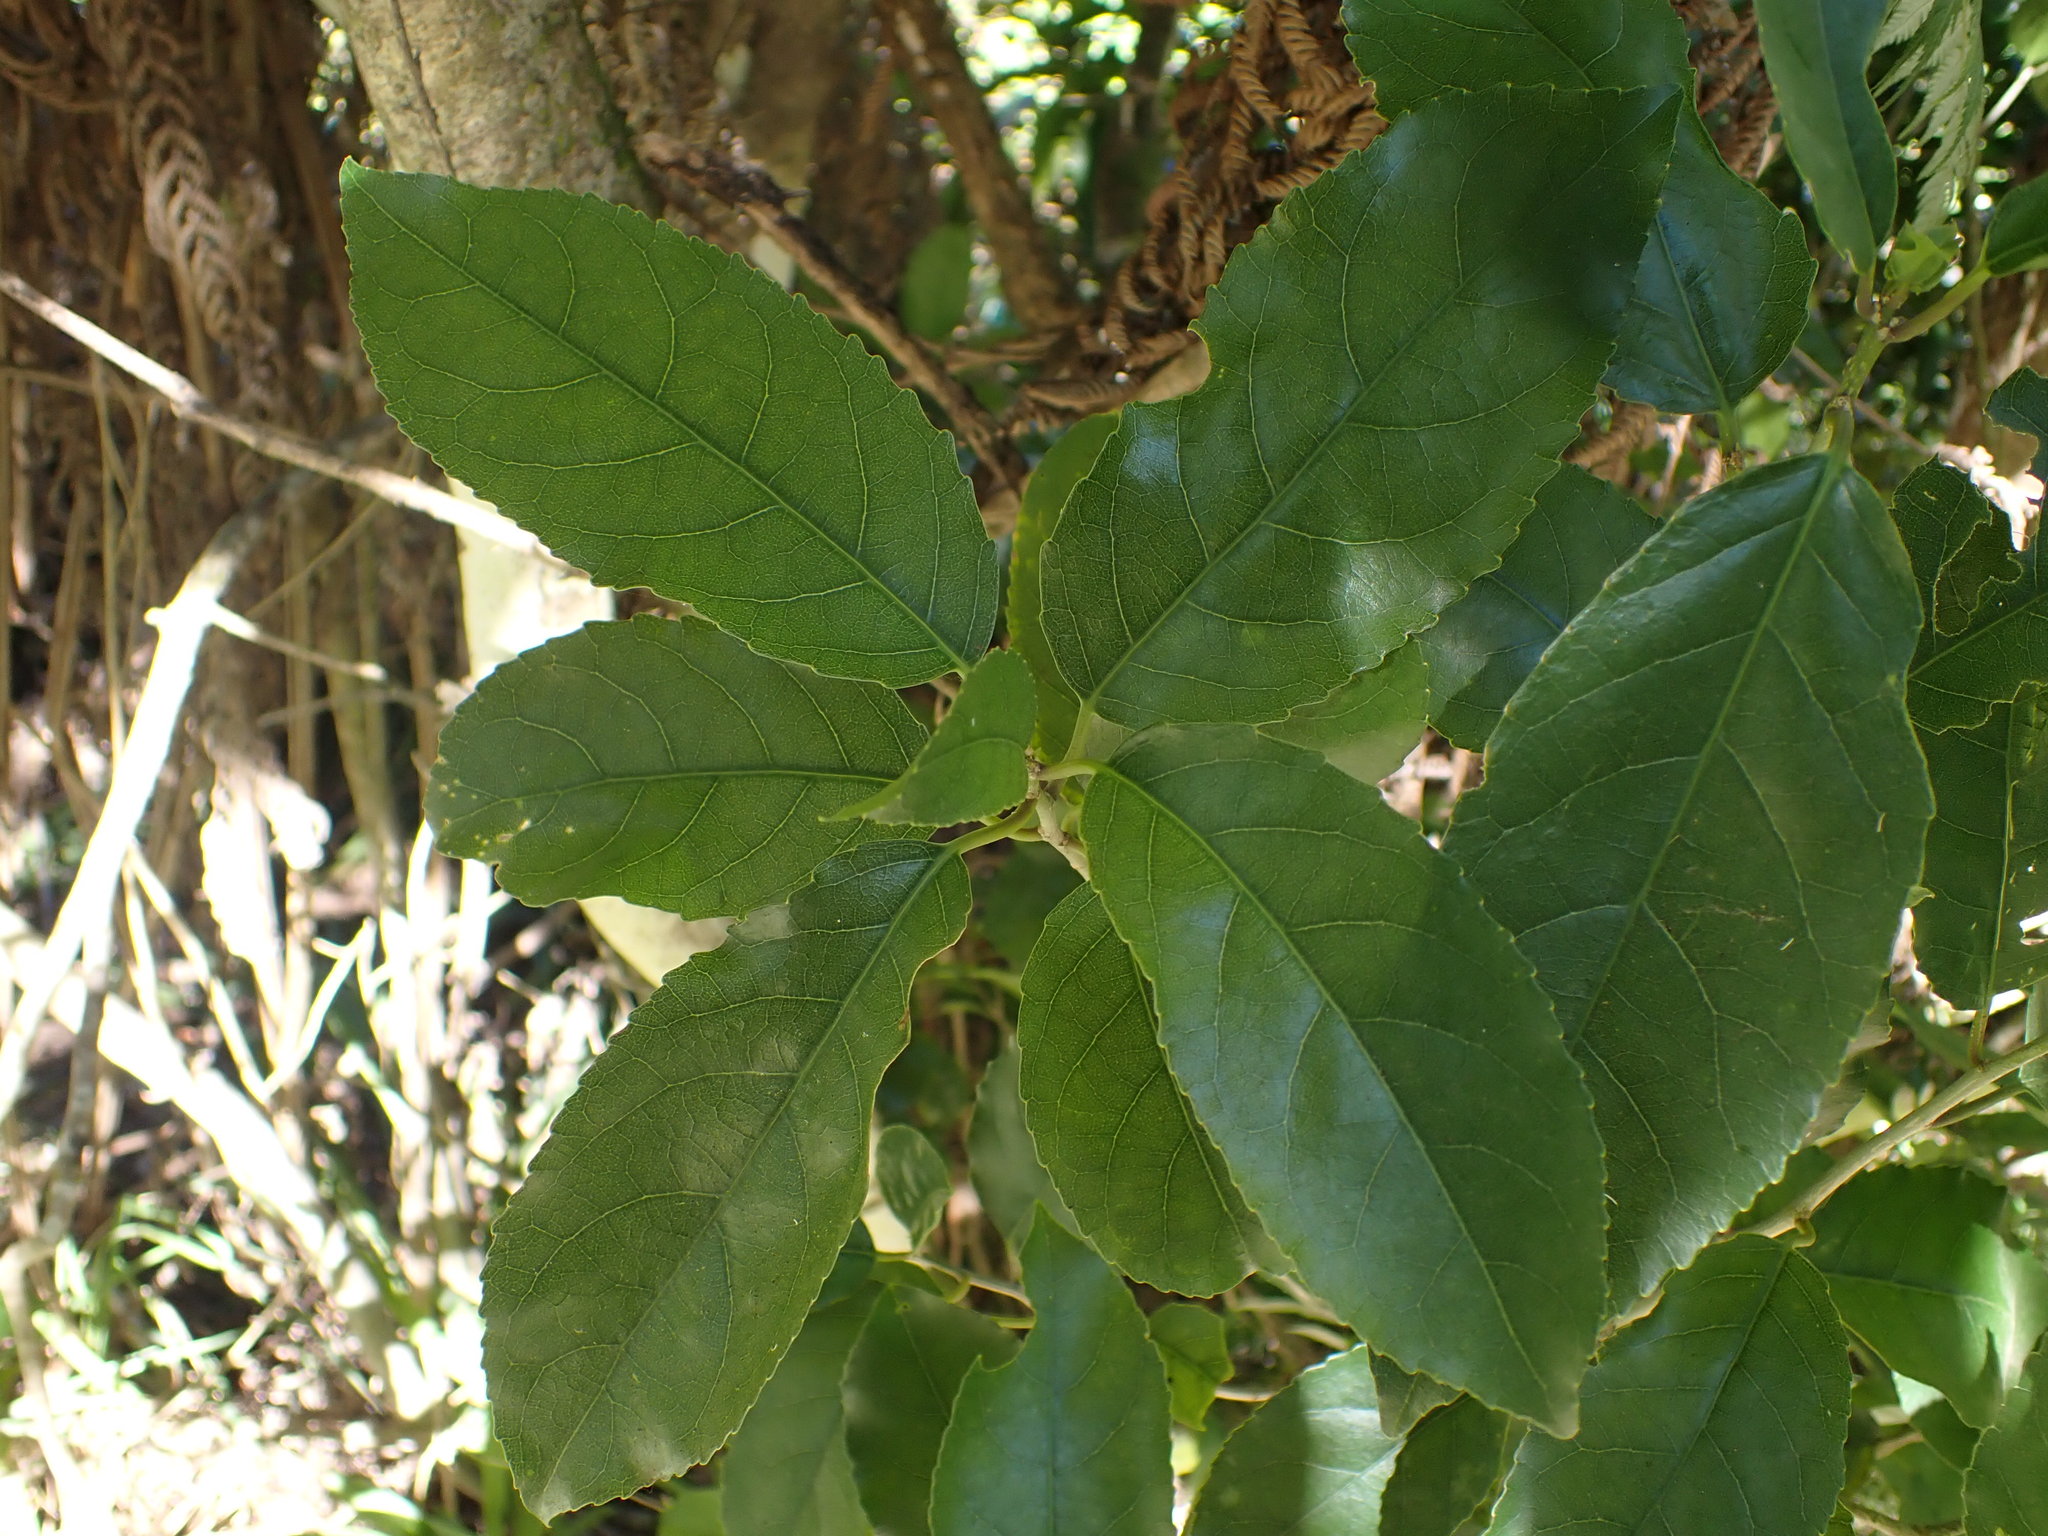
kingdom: Plantae
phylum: Tracheophyta
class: Magnoliopsida
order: Malpighiales
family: Violaceae
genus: Melicytus
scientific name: Melicytus ramiflorus
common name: Mahoe
